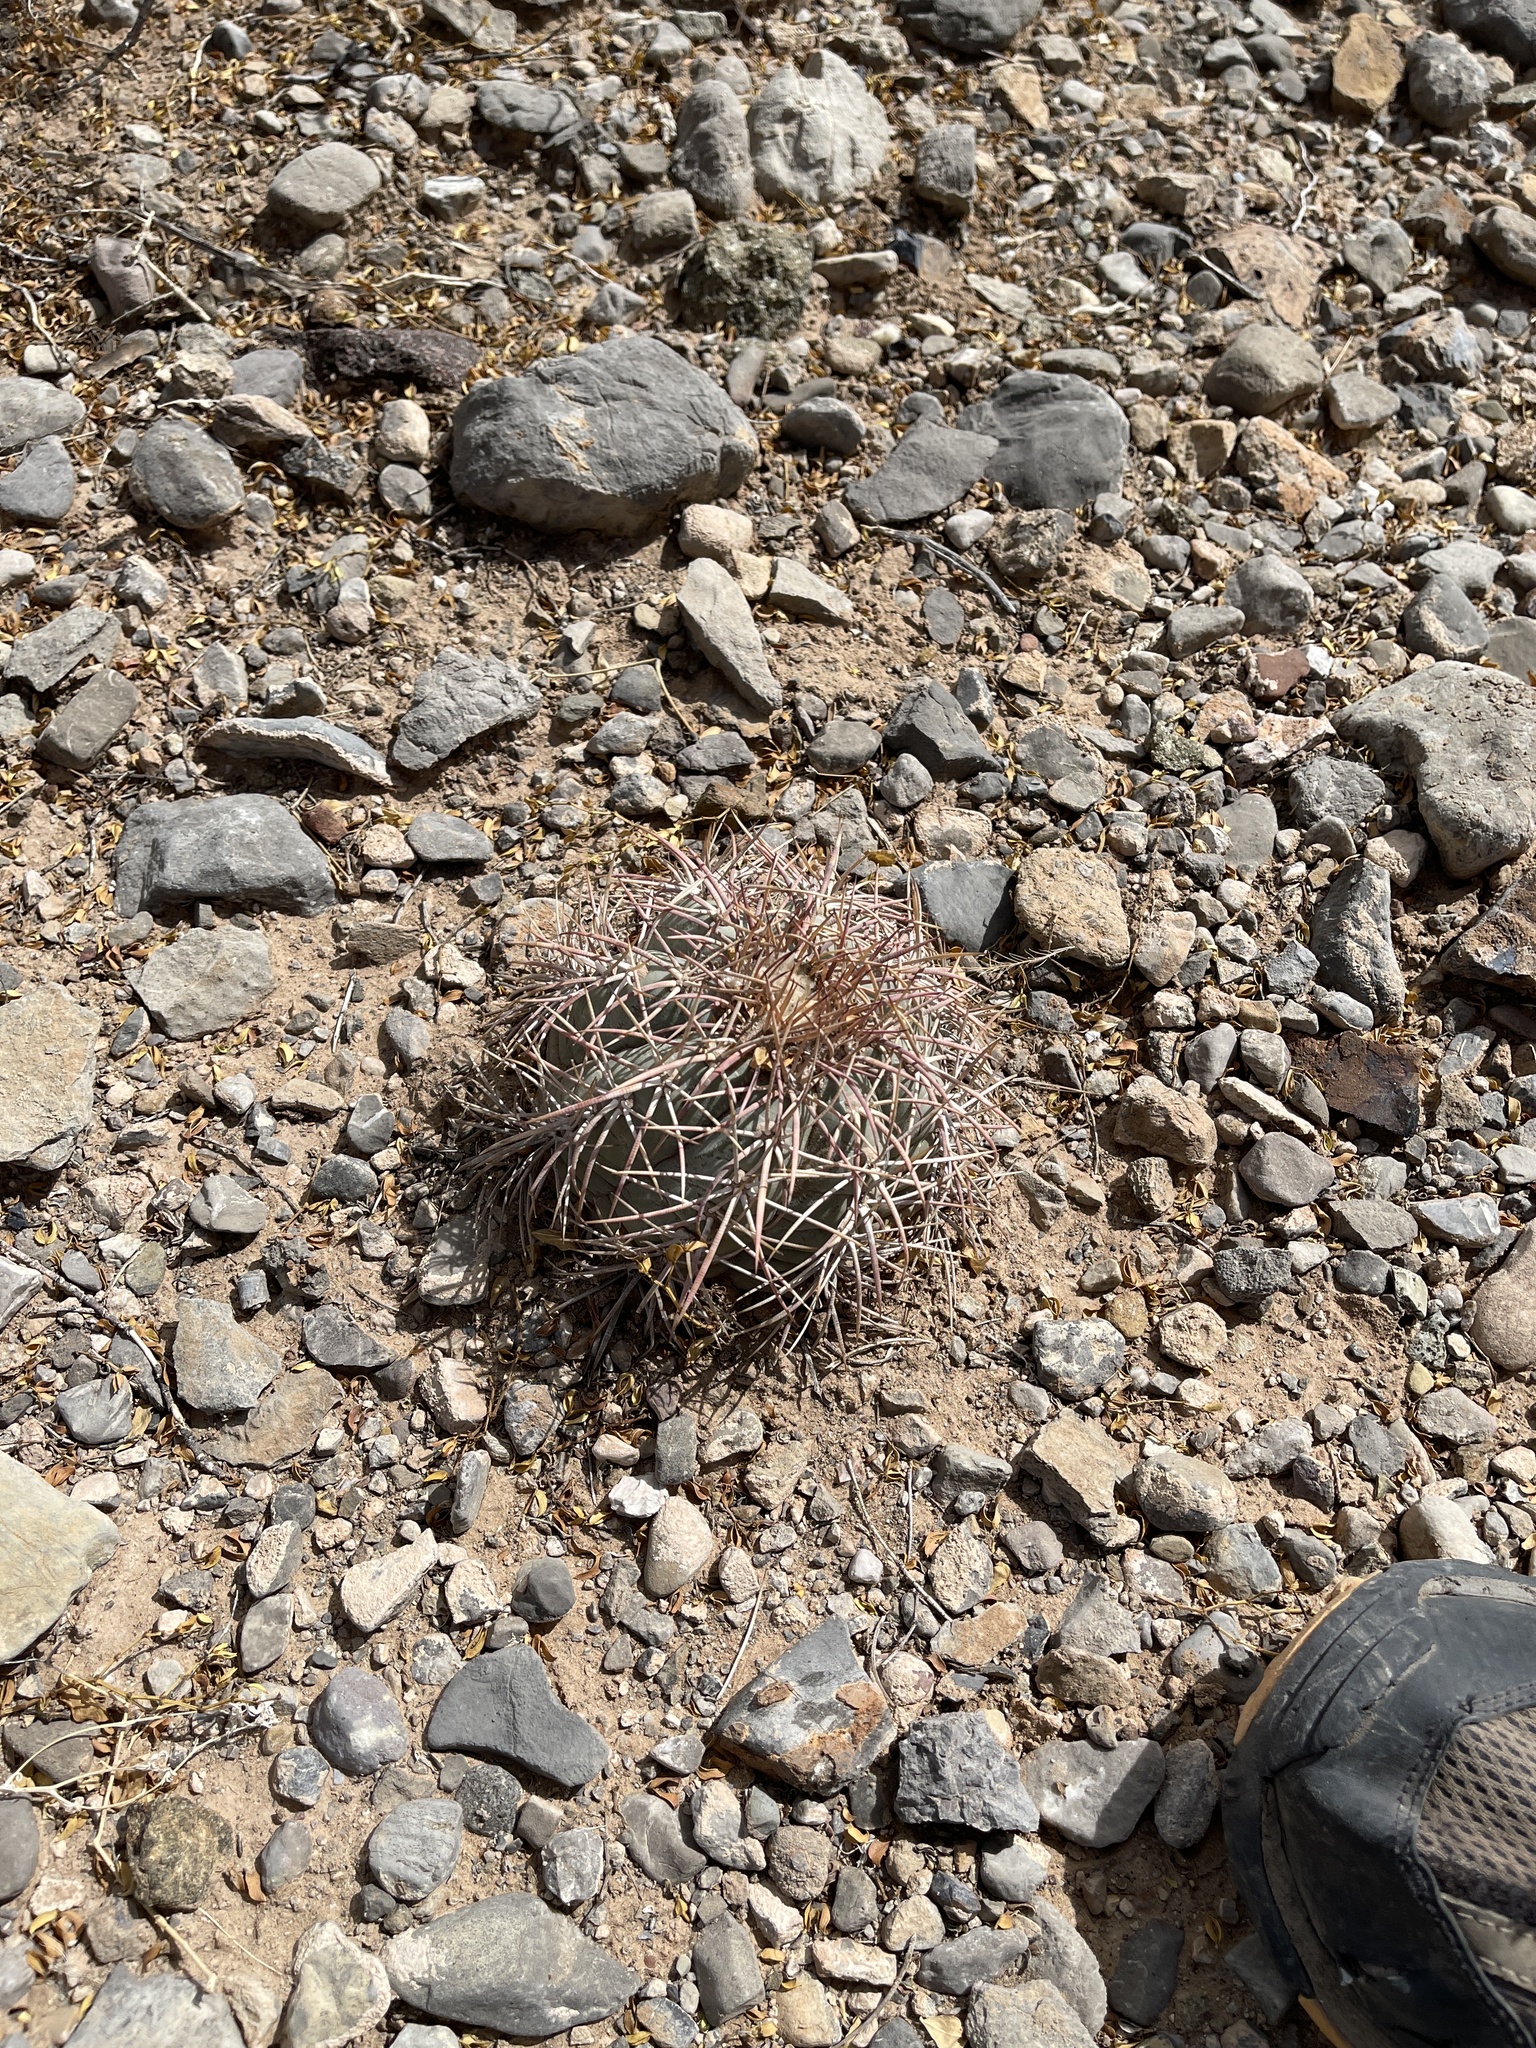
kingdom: Plantae
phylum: Tracheophyta
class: Magnoliopsida
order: Caryophyllales
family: Cactaceae
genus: Echinocactus
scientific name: Echinocactus horizonthalonius
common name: Devilshead
